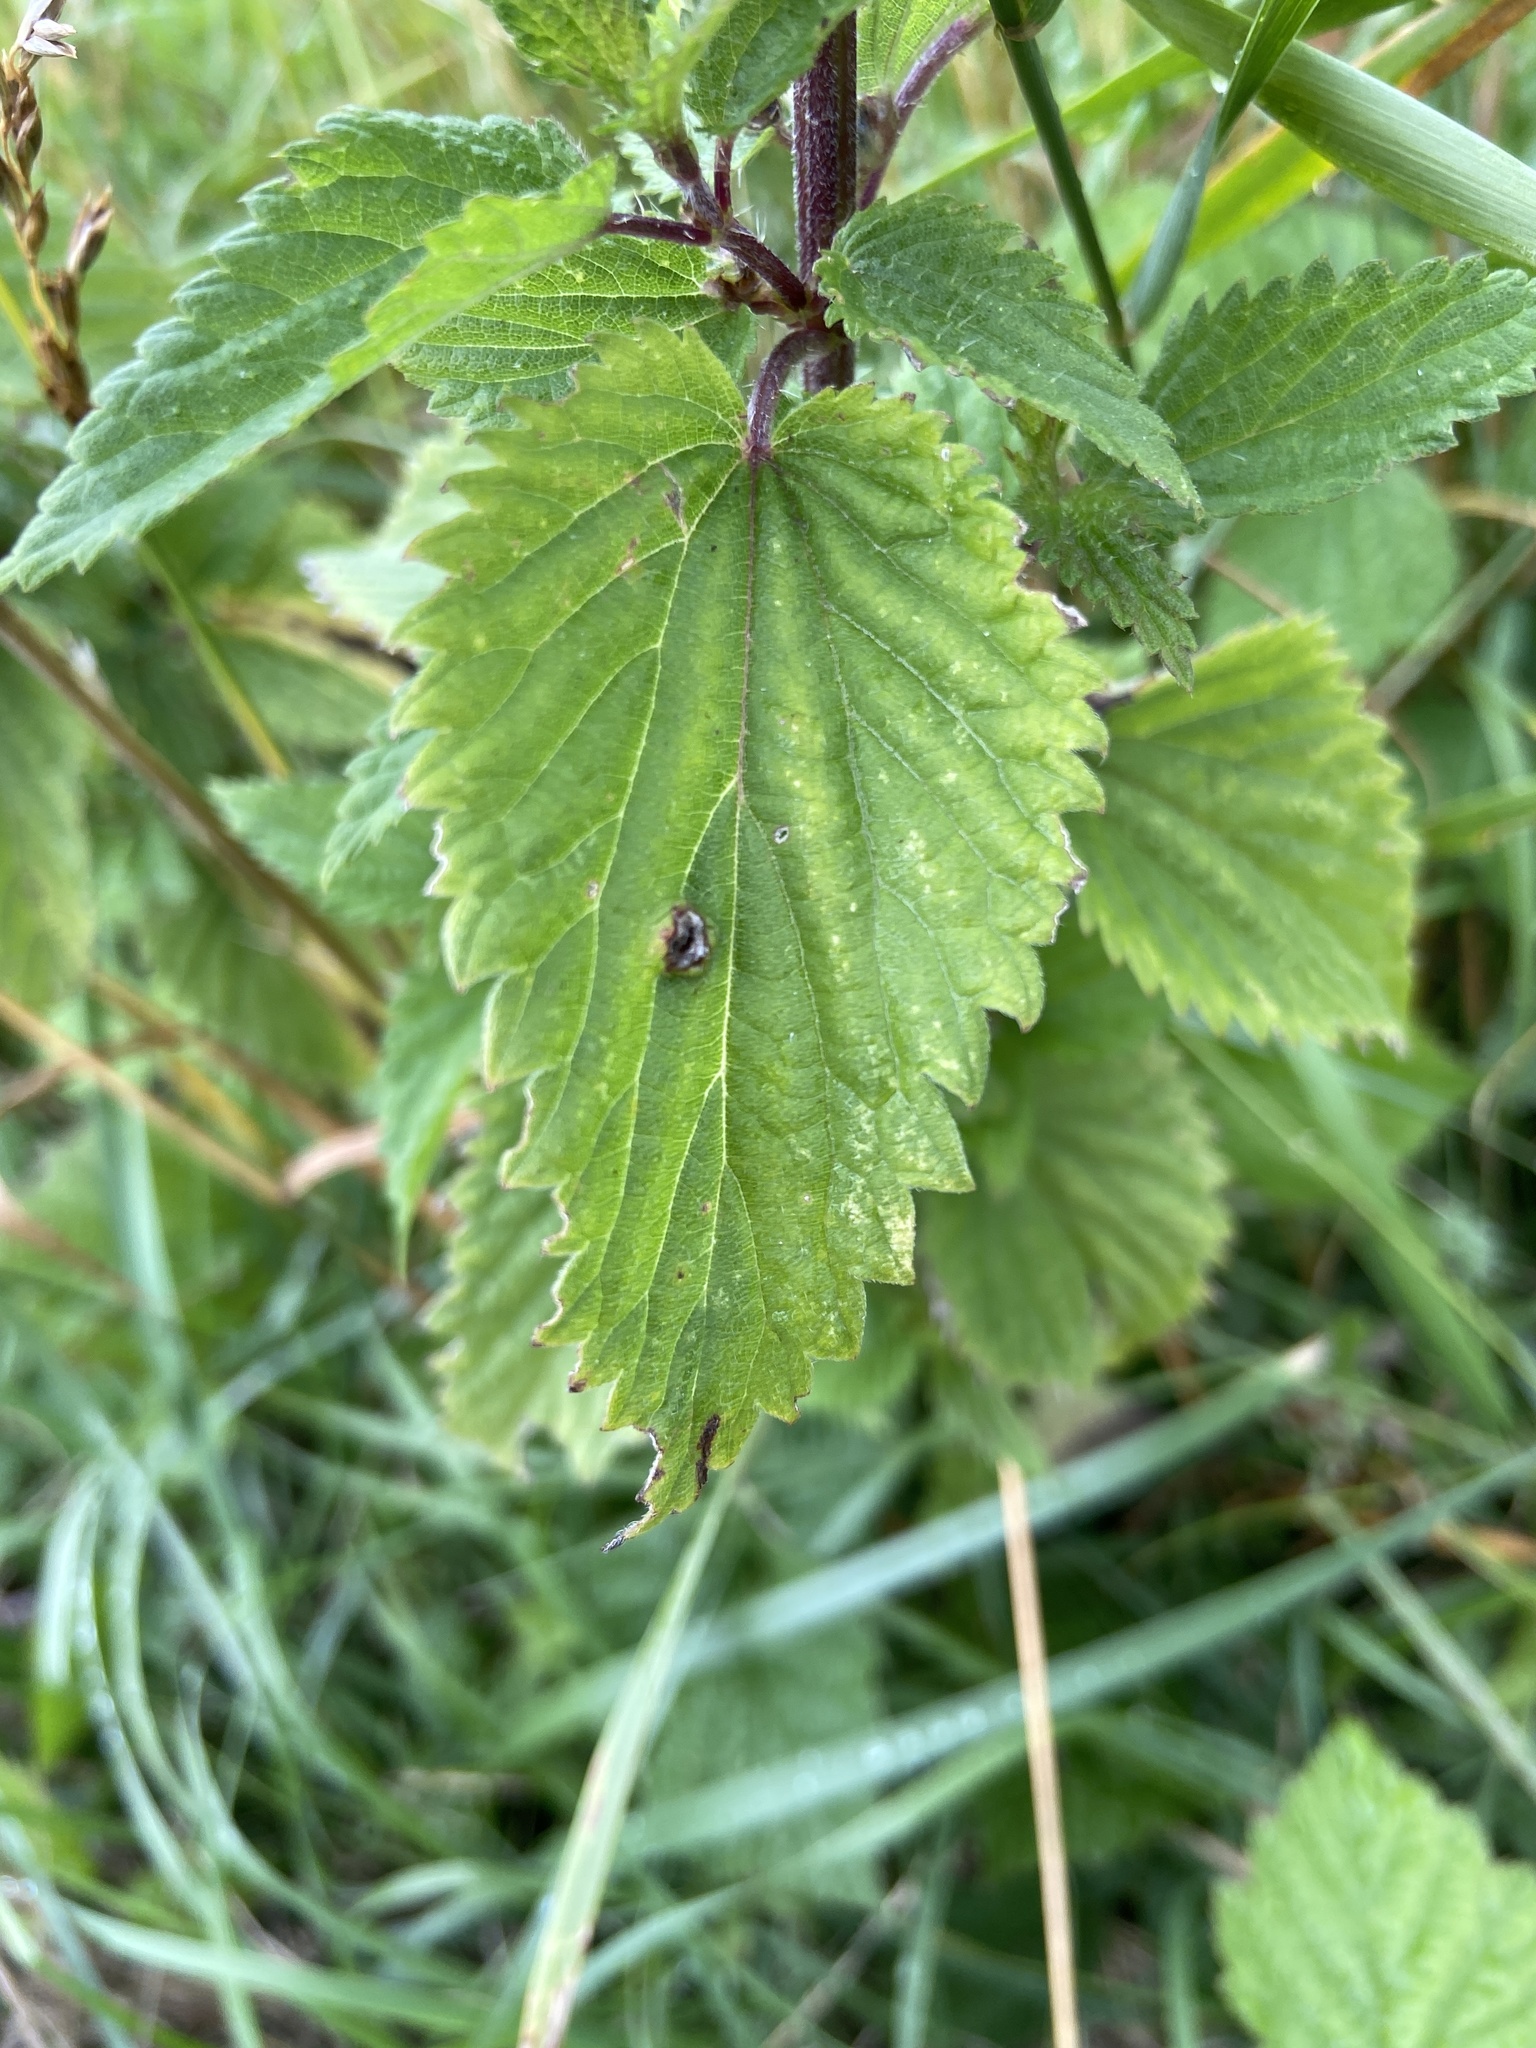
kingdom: Animalia
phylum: Arthropoda
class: Insecta
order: Diptera
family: Cecidomyiidae
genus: Dasineura
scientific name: Dasineura urticae
